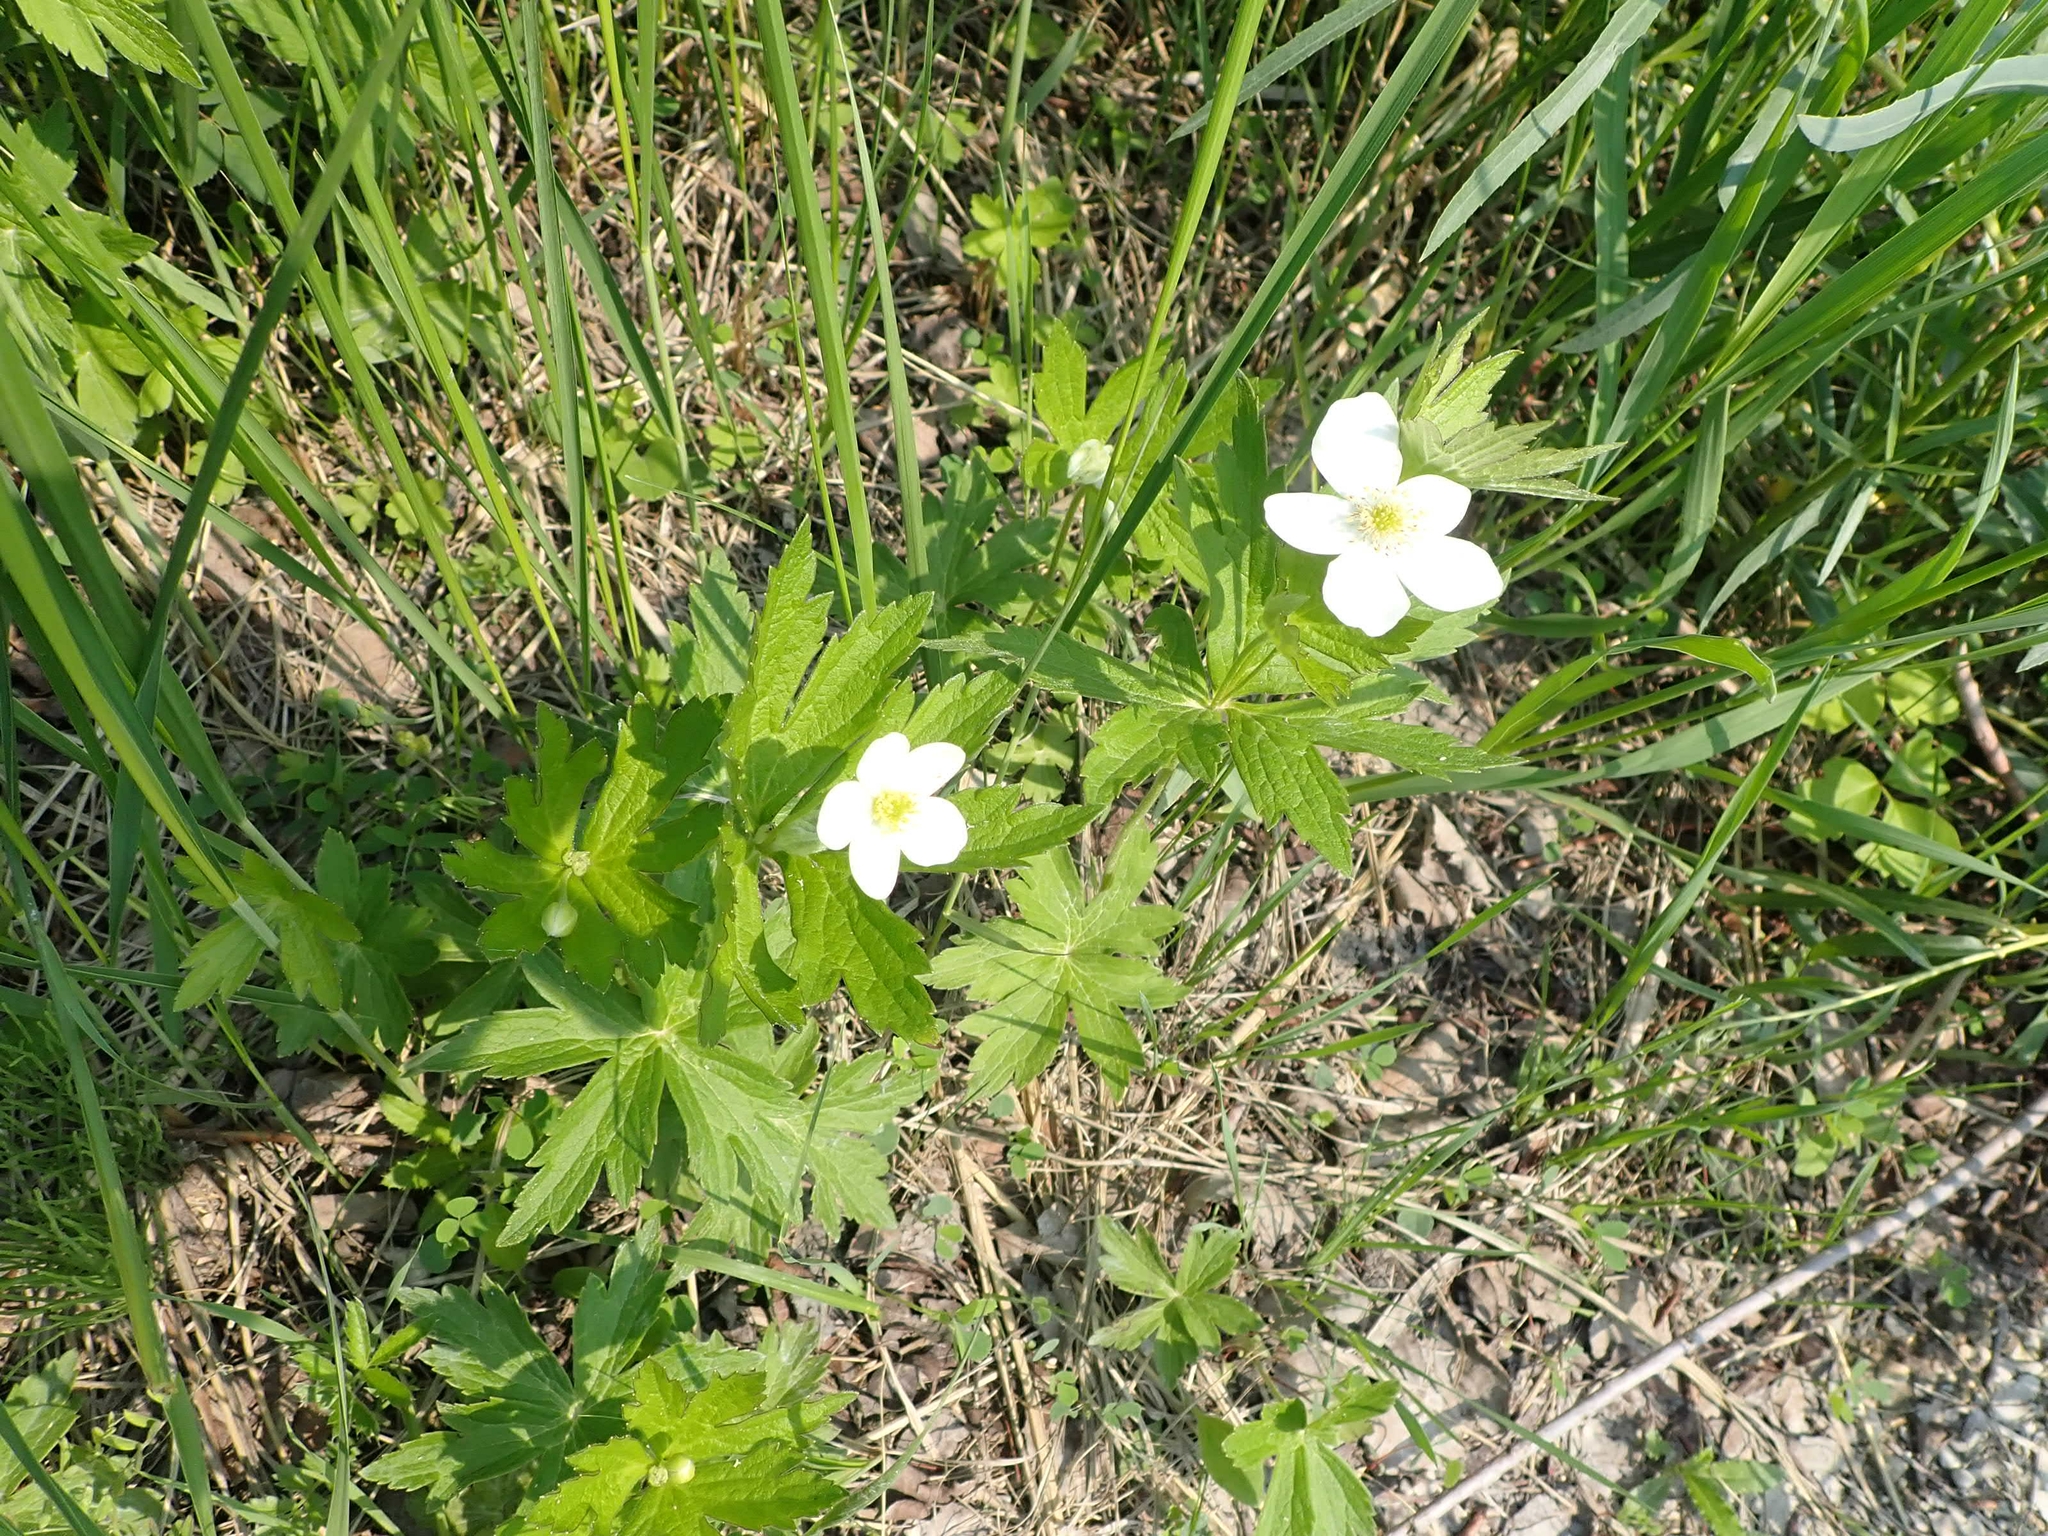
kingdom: Plantae
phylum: Tracheophyta
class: Magnoliopsida
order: Ranunculales
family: Ranunculaceae
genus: Anemonastrum
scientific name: Anemonastrum canadense
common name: Canada anemone
